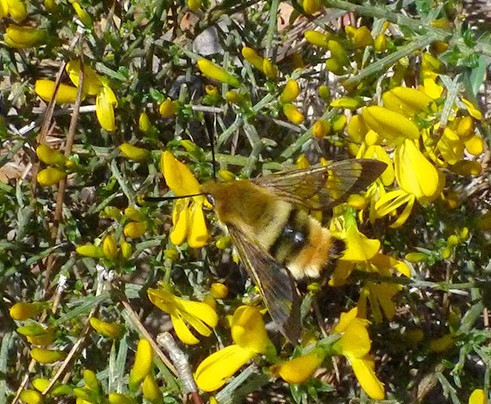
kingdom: Animalia
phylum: Arthropoda
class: Insecta
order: Lepidoptera
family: Sphingidae
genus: Hemaris
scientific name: Hemaris tityus
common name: Narrow-bordered bee hawk-moth
